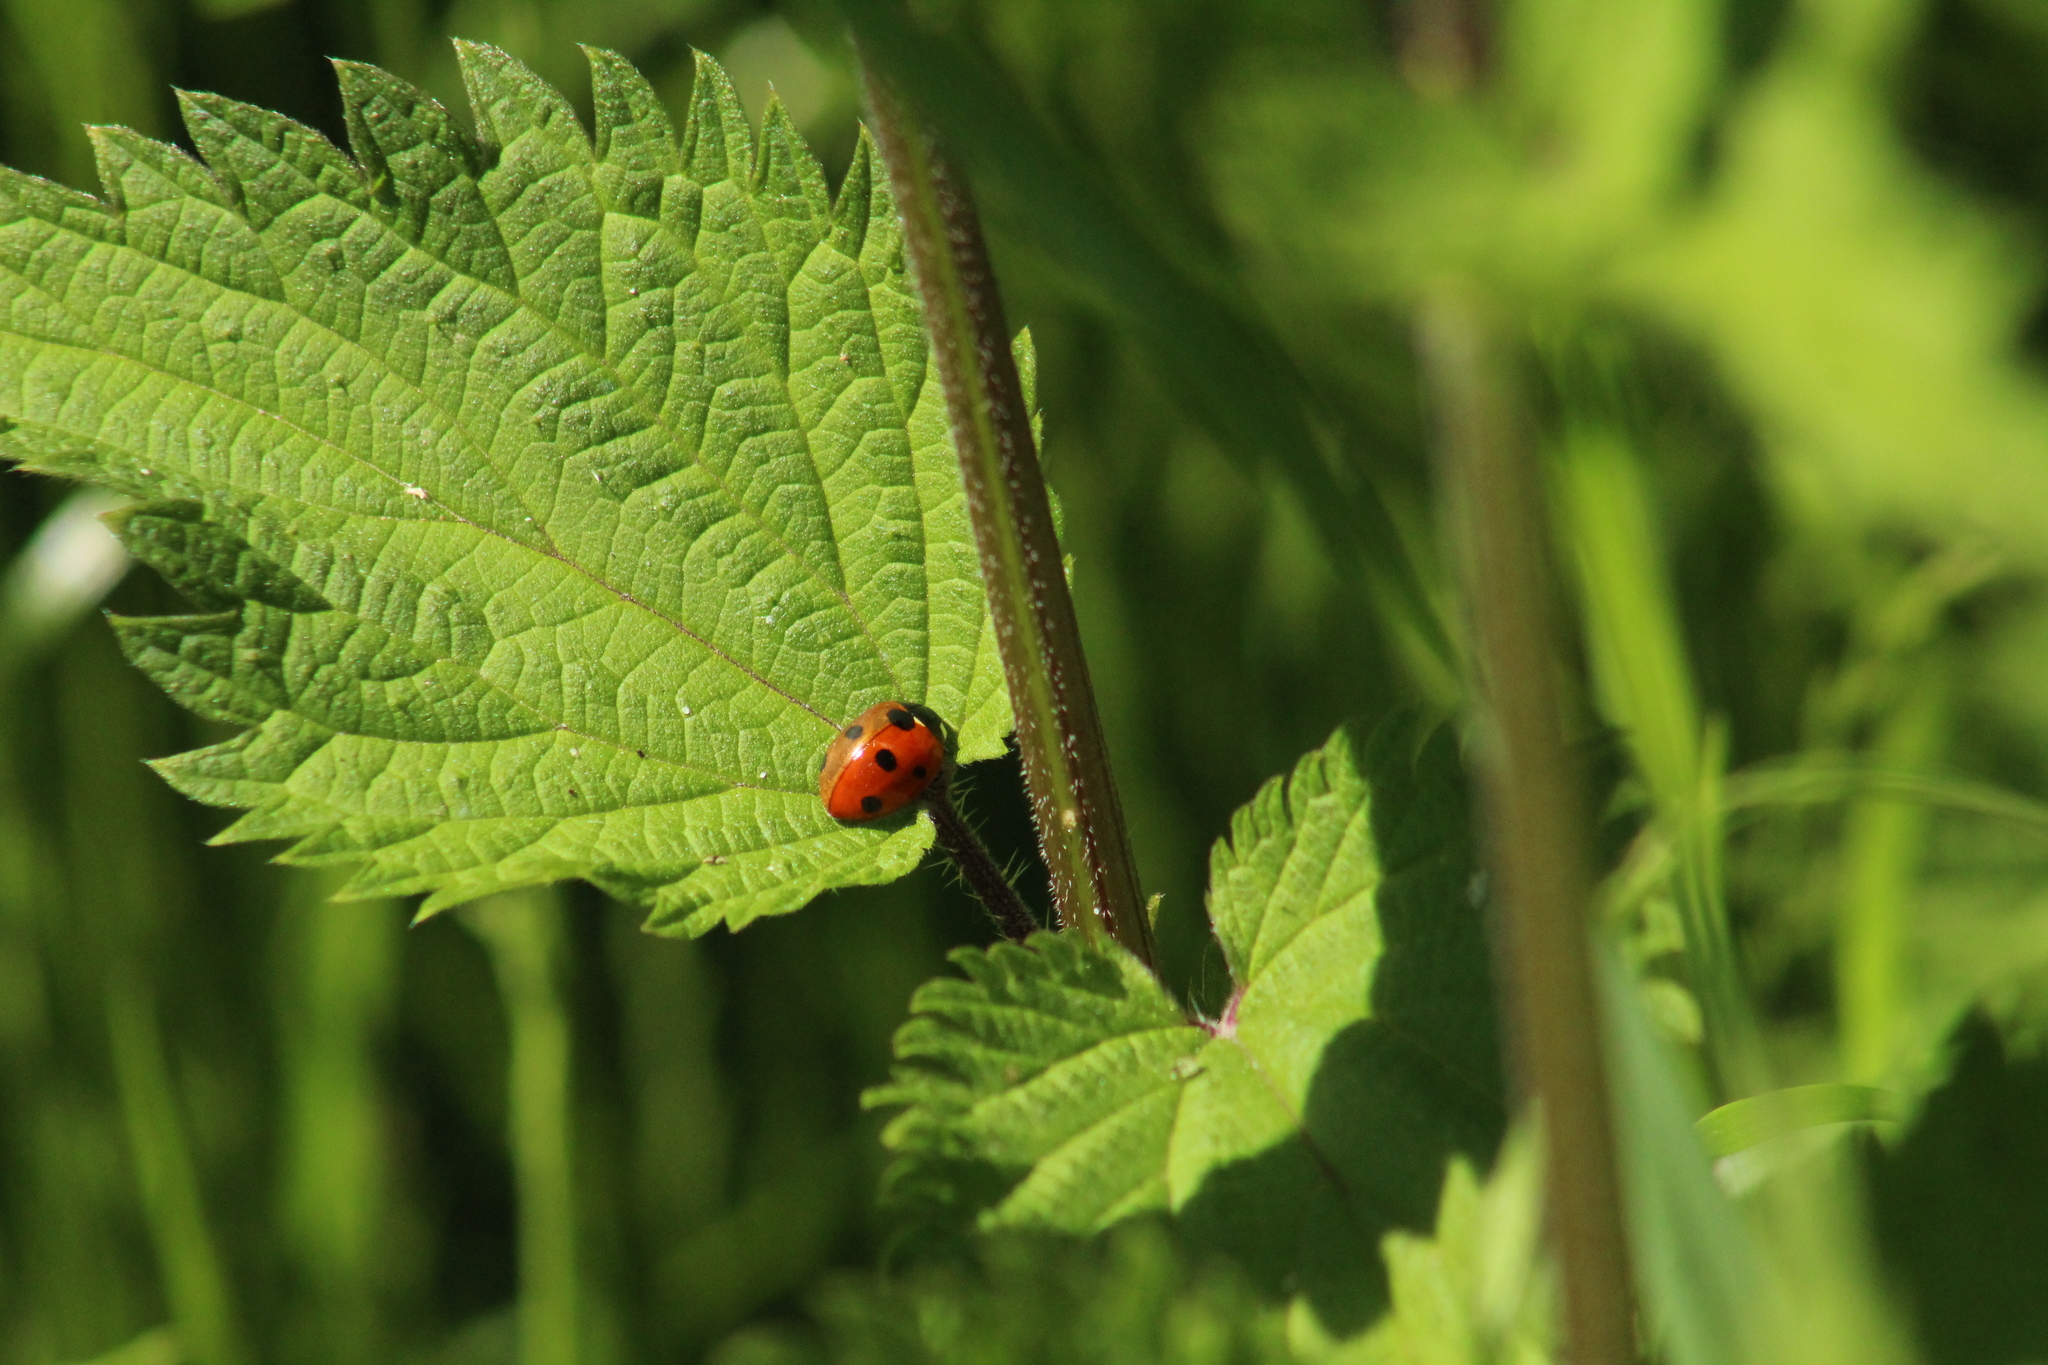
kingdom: Animalia
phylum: Arthropoda
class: Insecta
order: Coleoptera
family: Coccinellidae
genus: Coccinella
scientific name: Coccinella septempunctata
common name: Sevenspotted lady beetle
